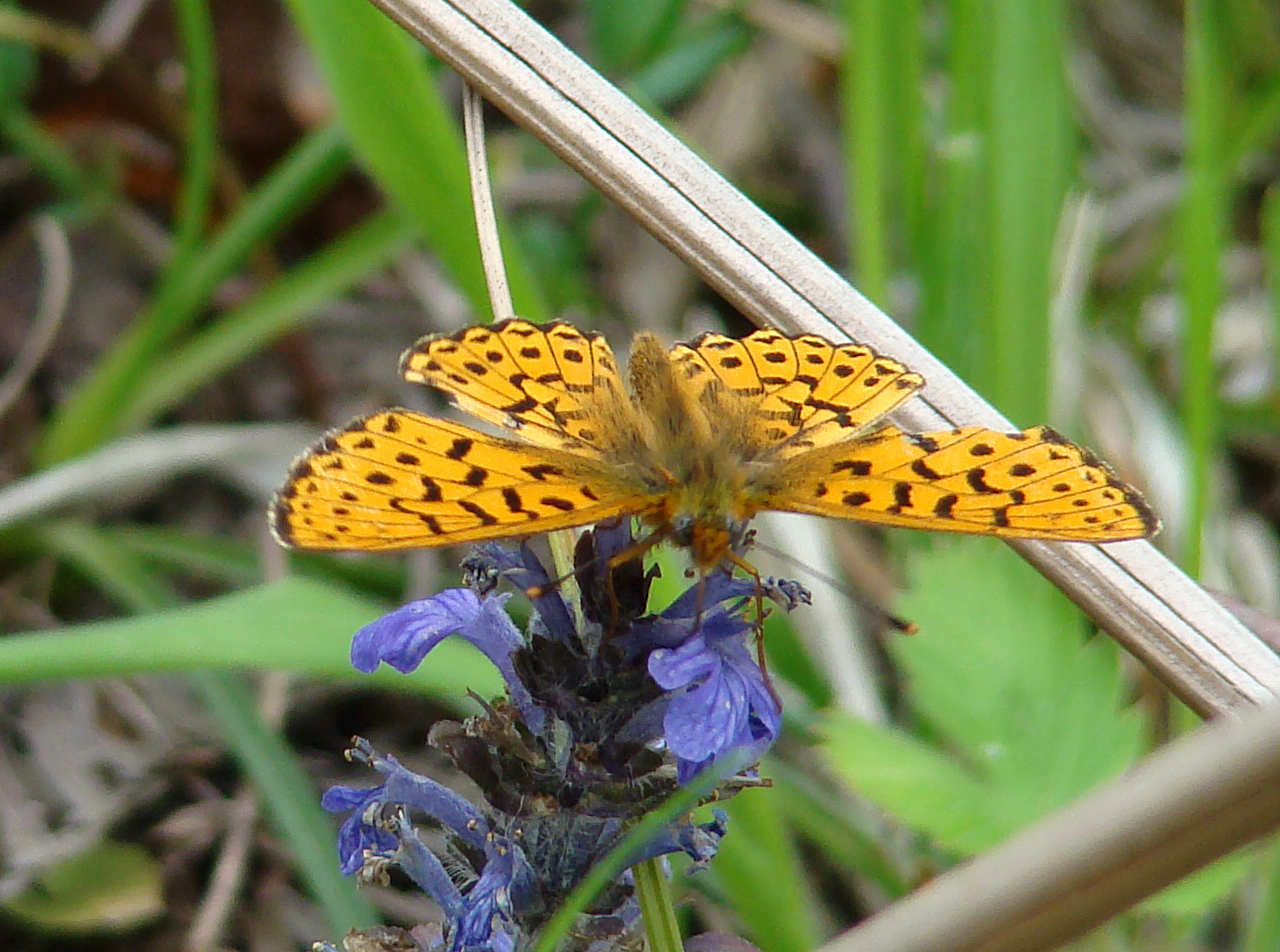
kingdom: Animalia
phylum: Arthropoda
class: Insecta
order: Lepidoptera
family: Nymphalidae
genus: Clossiana
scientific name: Clossiana euphrosyne
